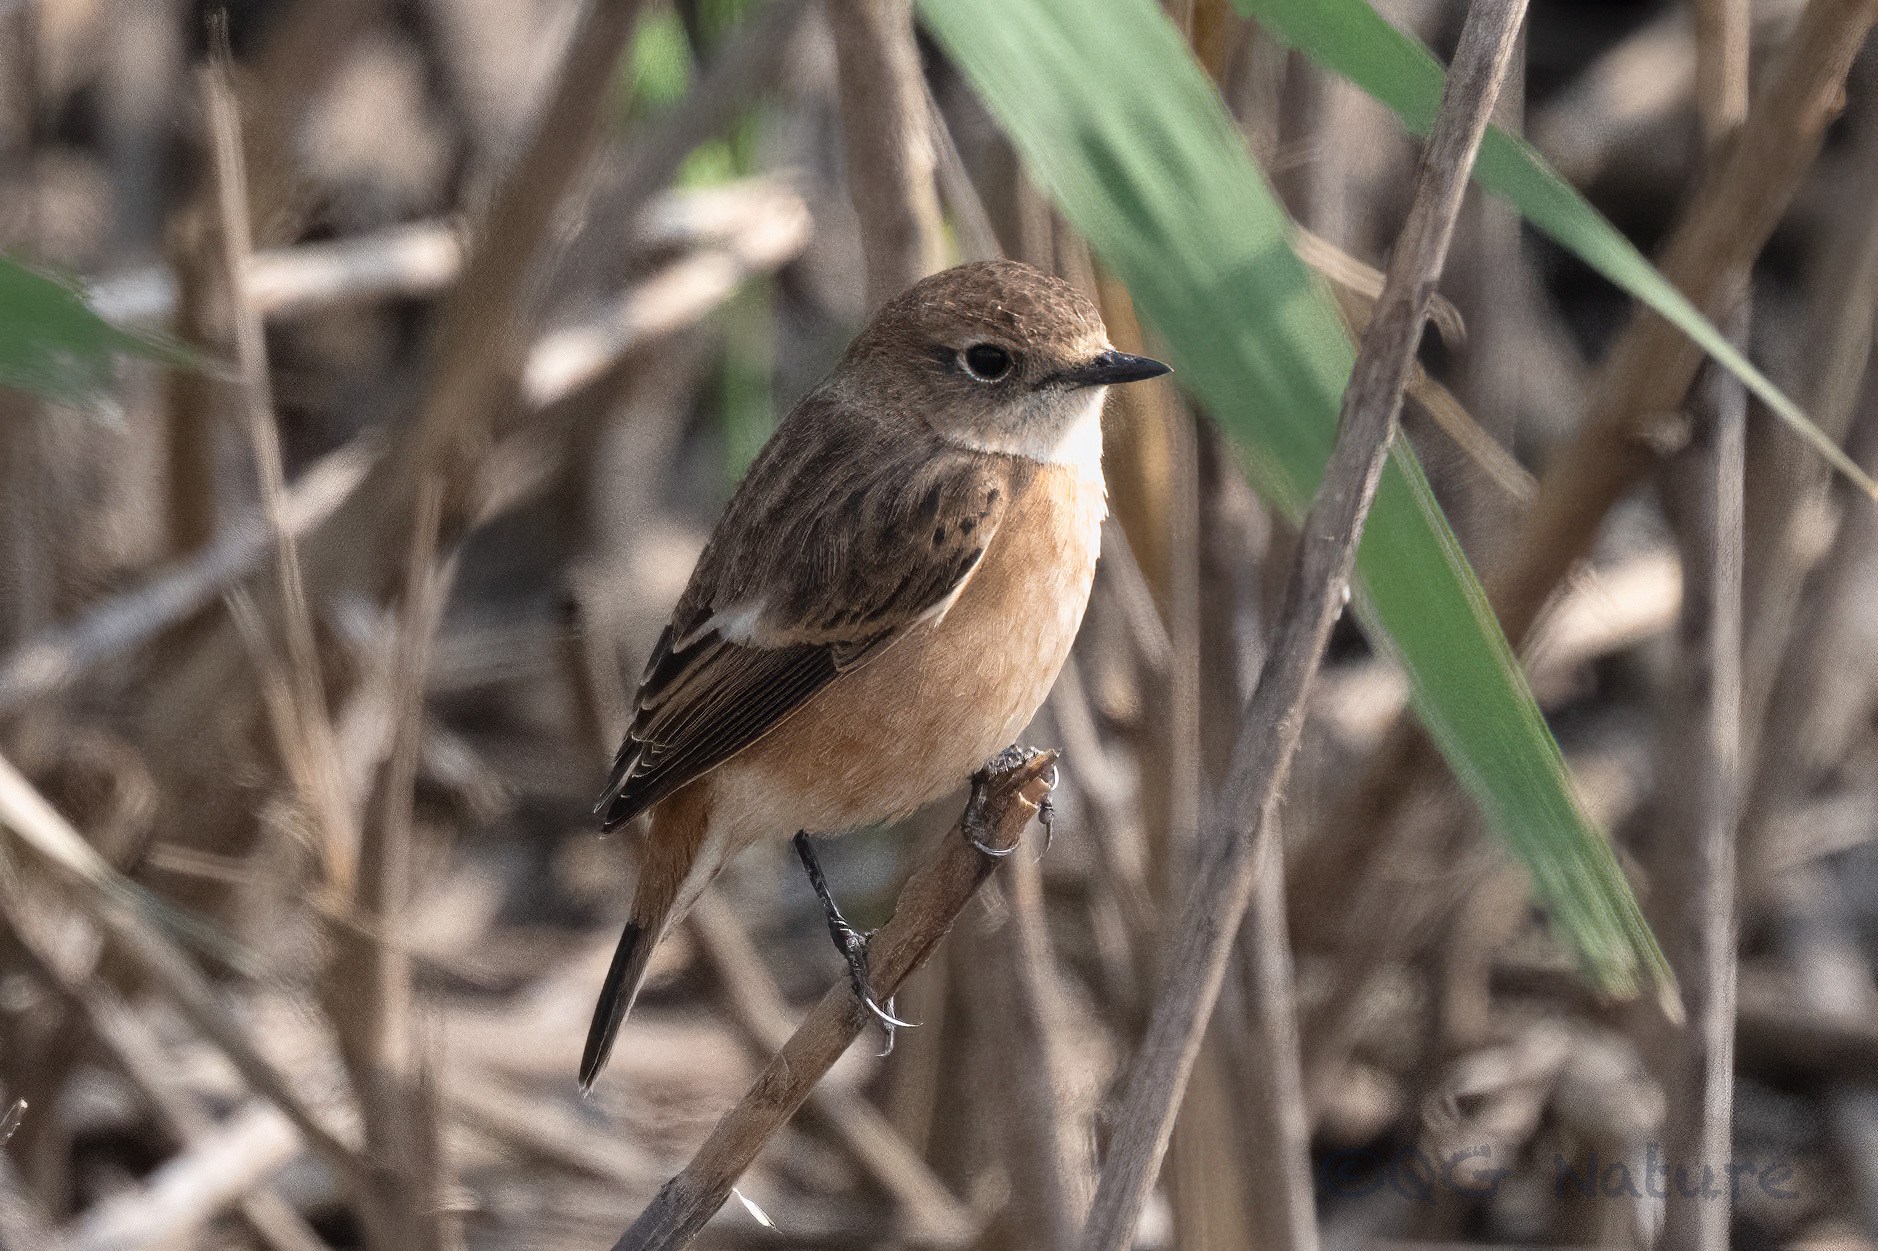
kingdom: Animalia
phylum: Chordata
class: Aves
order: Passeriformes
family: Muscicapidae
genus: Saxicola
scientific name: Saxicola stejnegeri
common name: Stejneger's stonechat
